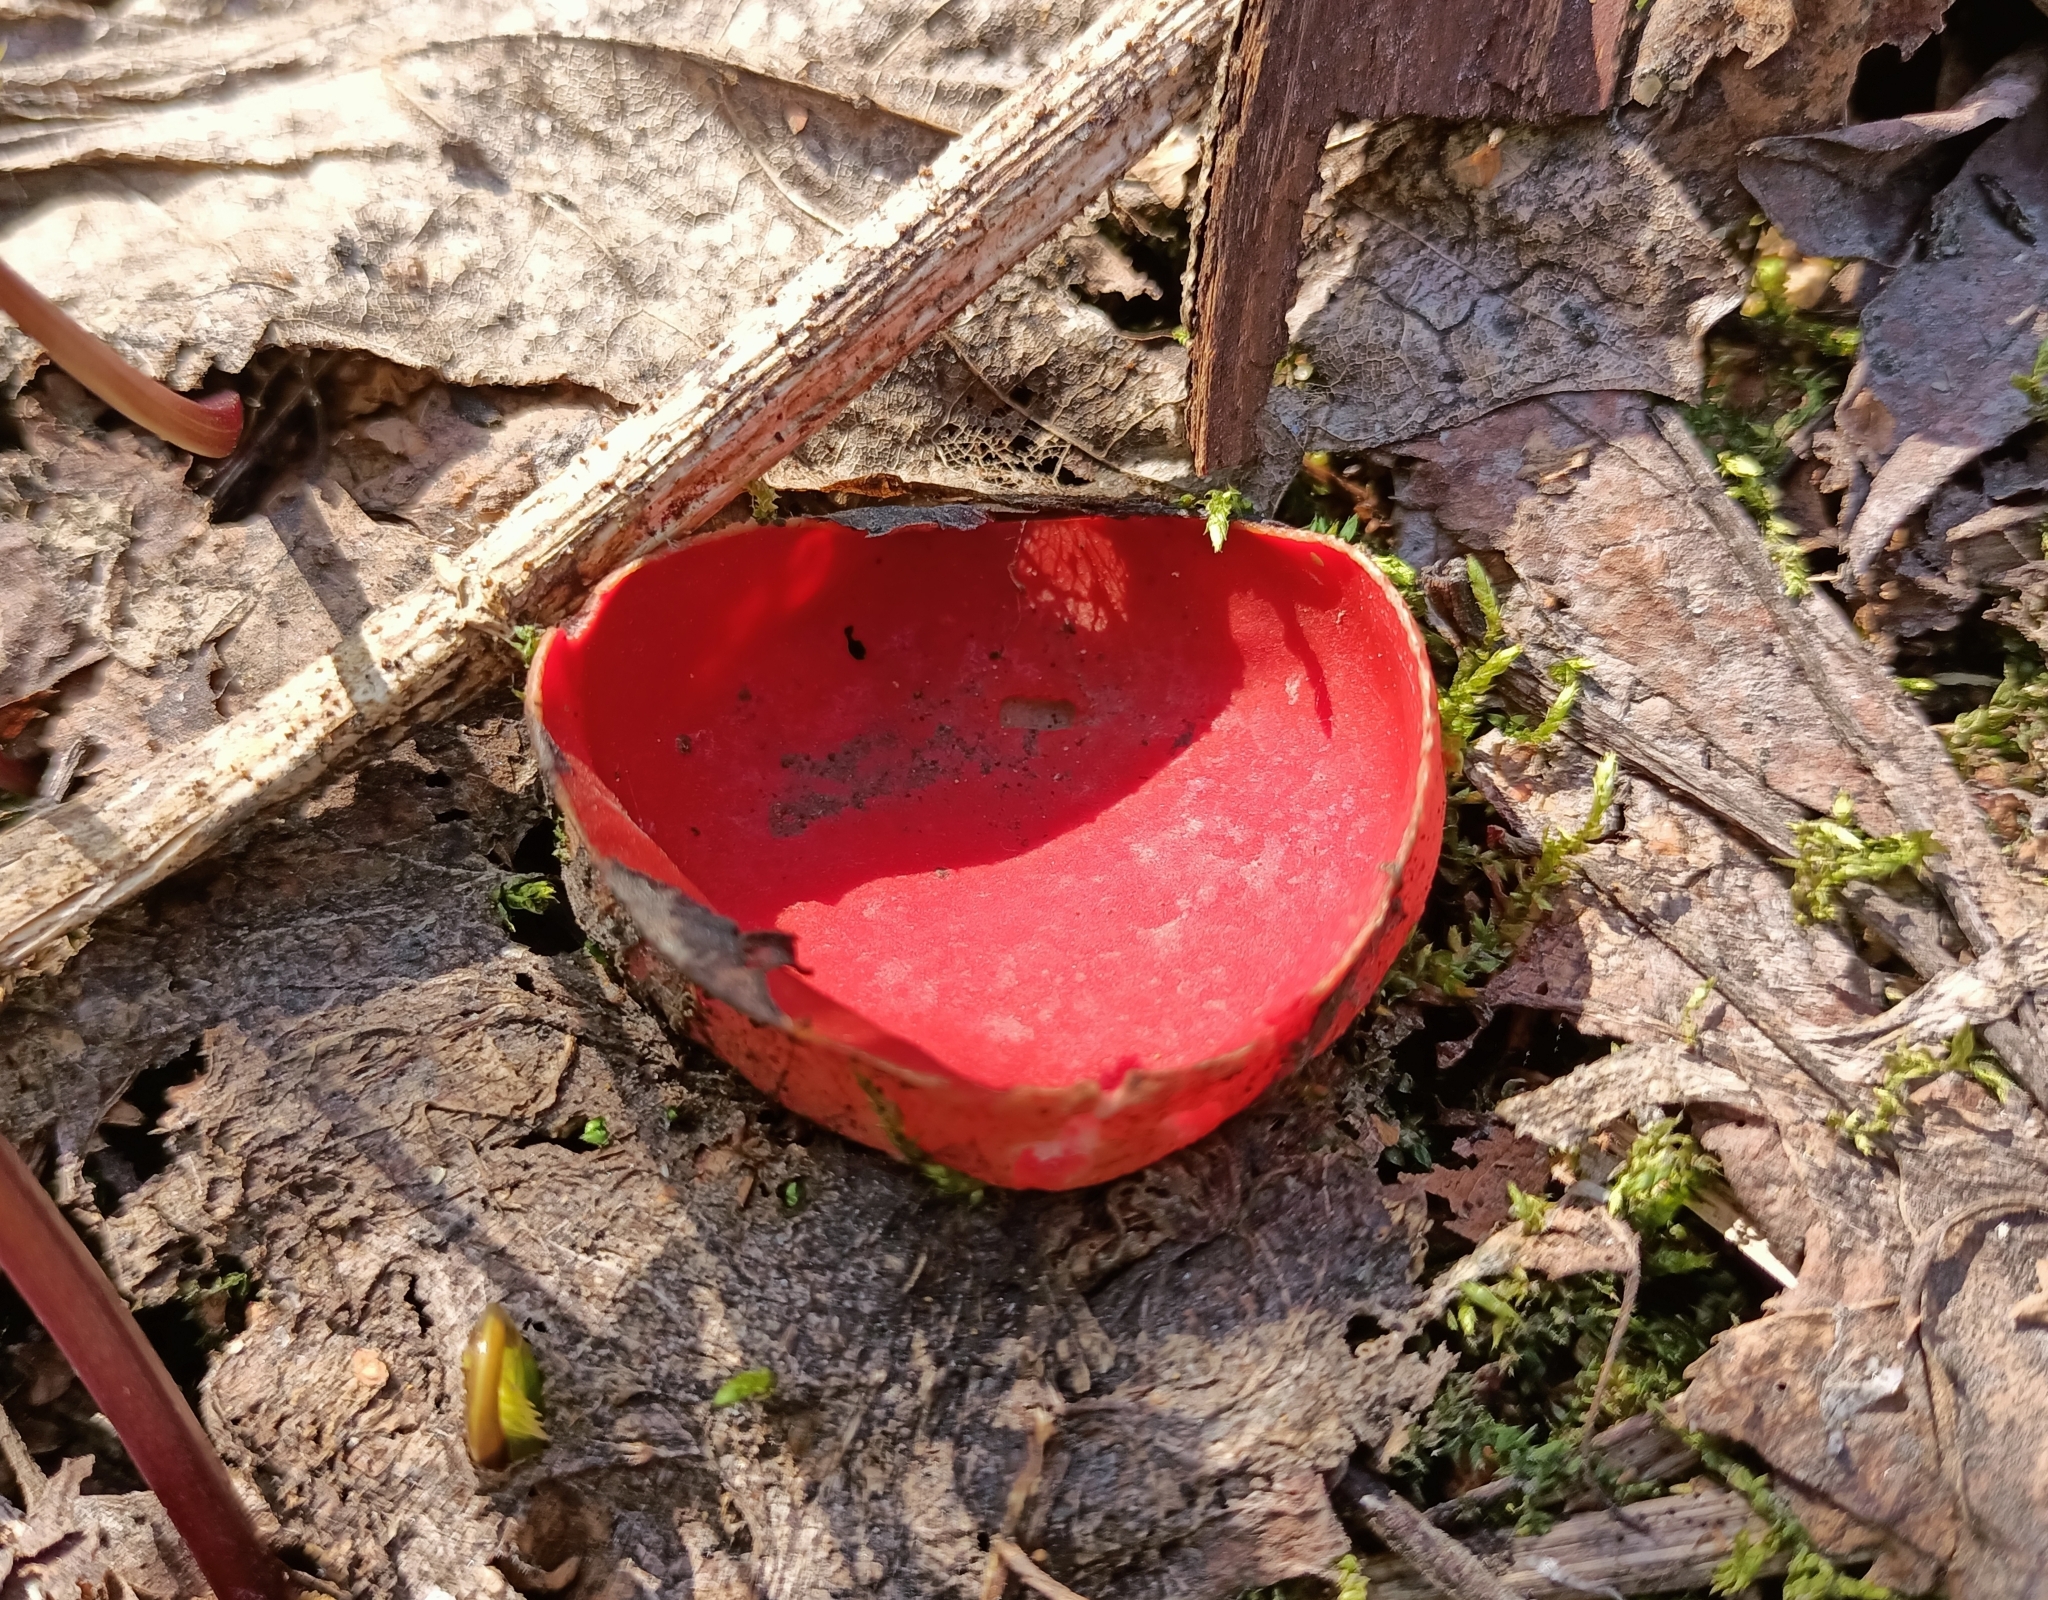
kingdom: Fungi
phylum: Ascomycota
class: Pezizomycetes
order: Pezizales
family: Sarcoscyphaceae
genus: Sarcoscypha
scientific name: Sarcoscypha austriaca
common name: Scarlet elfcup
